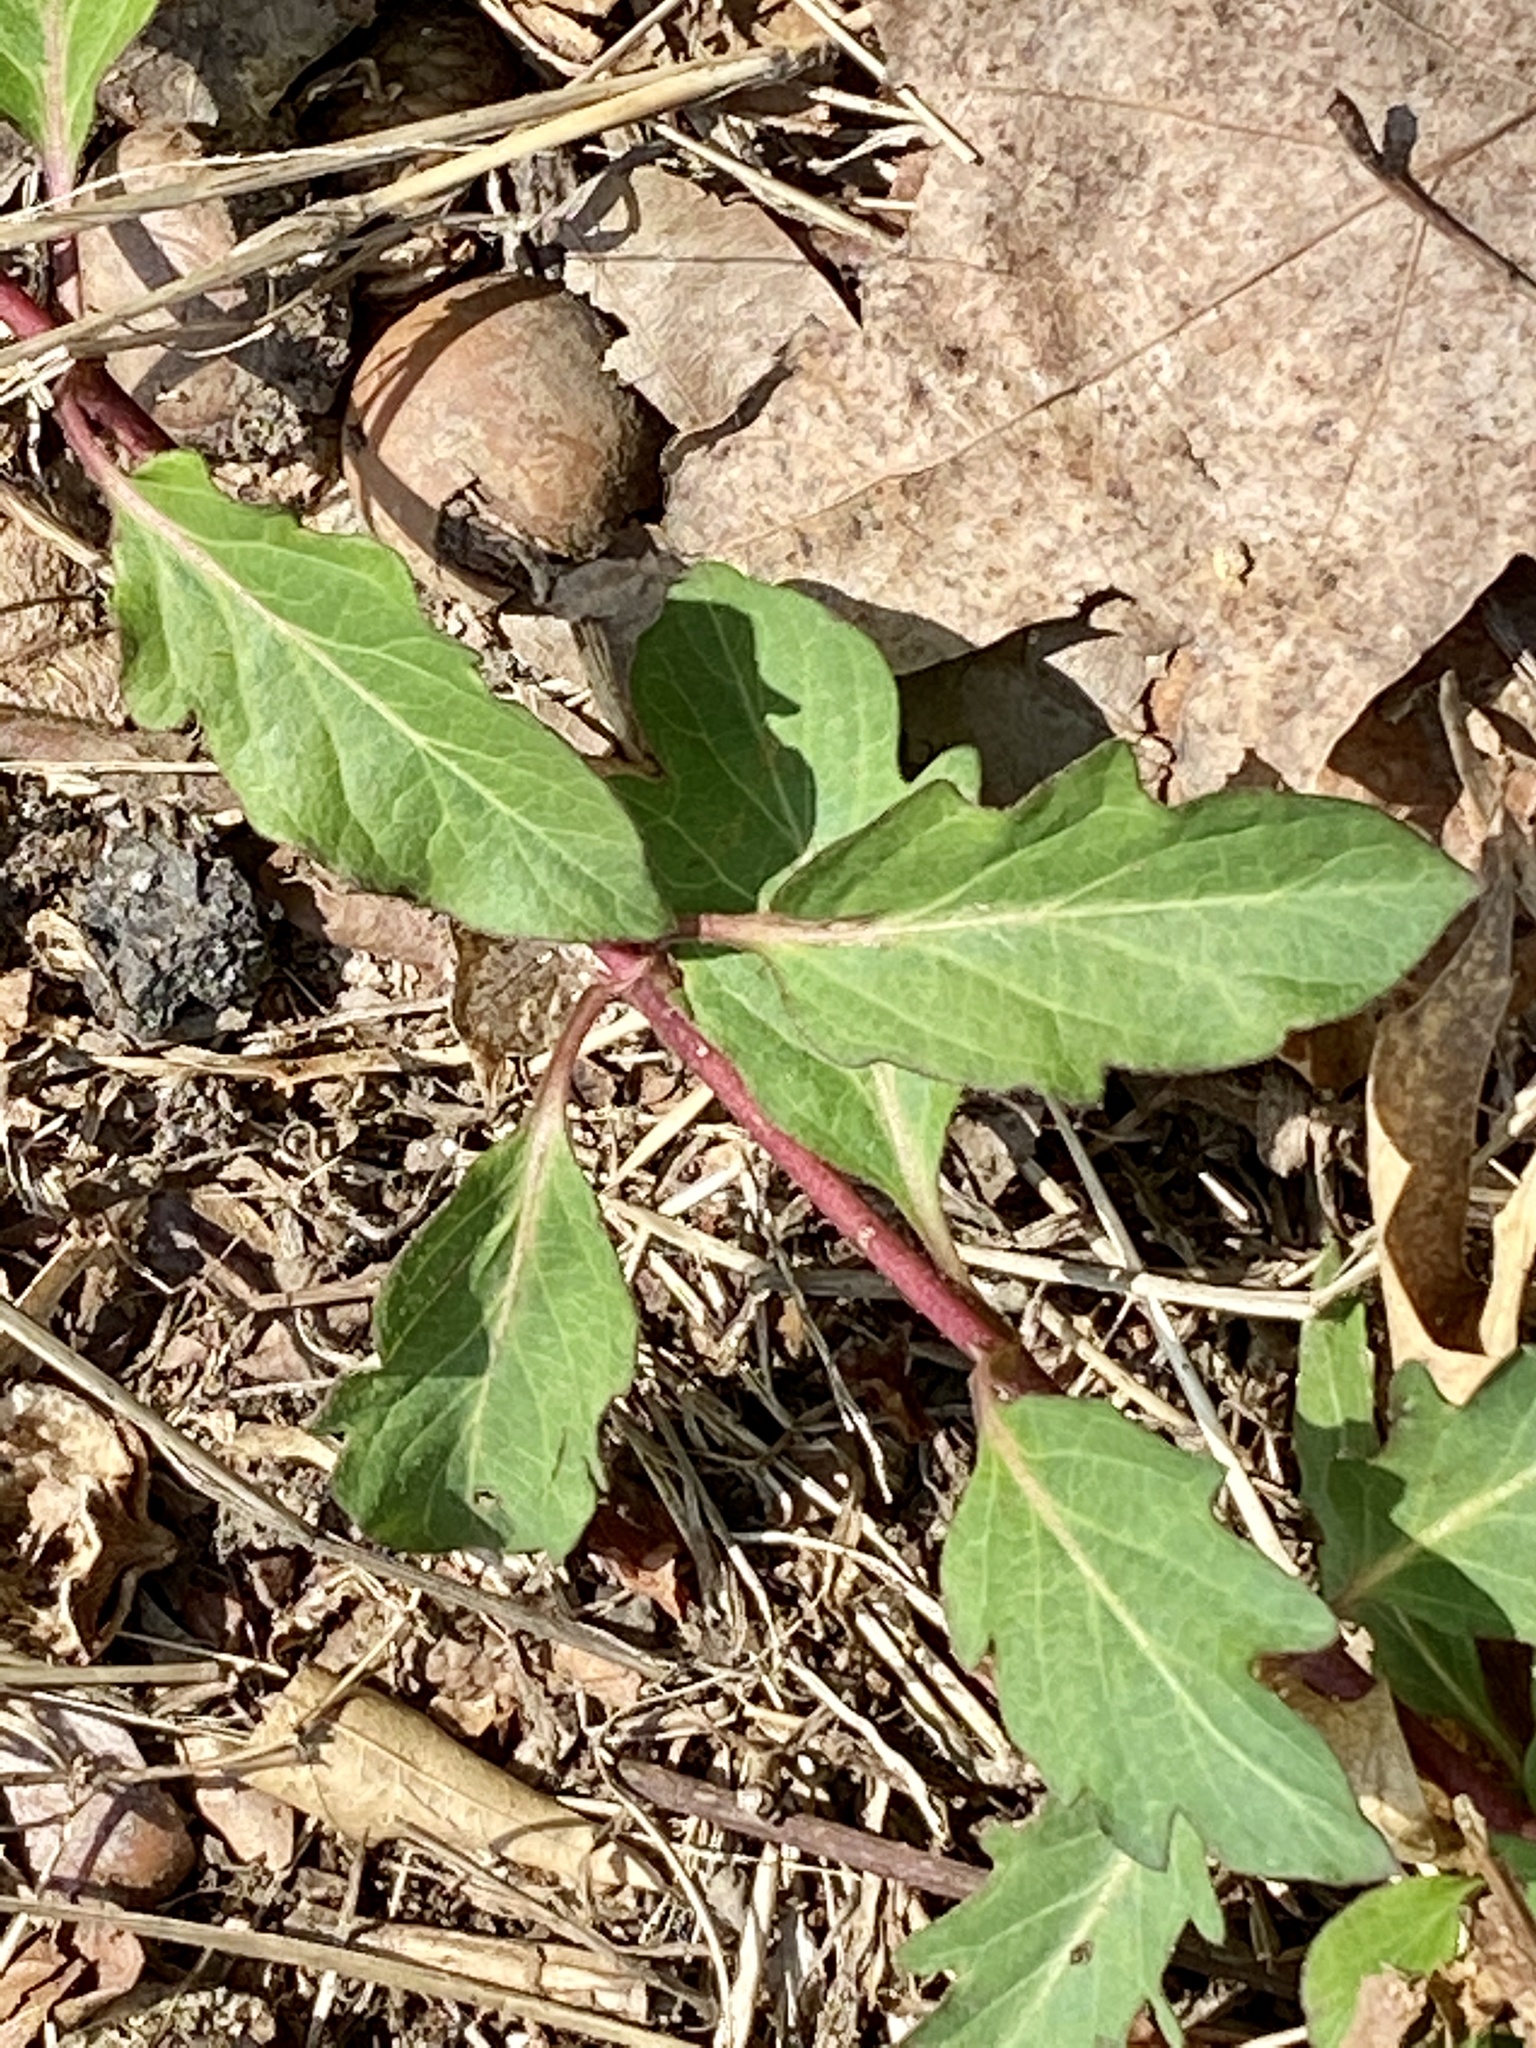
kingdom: Plantae
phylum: Tracheophyta
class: Magnoliopsida
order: Dipsacales
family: Caprifoliaceae
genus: Lonicera
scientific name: Lonicera japonica
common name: Japanese honeysuckle
